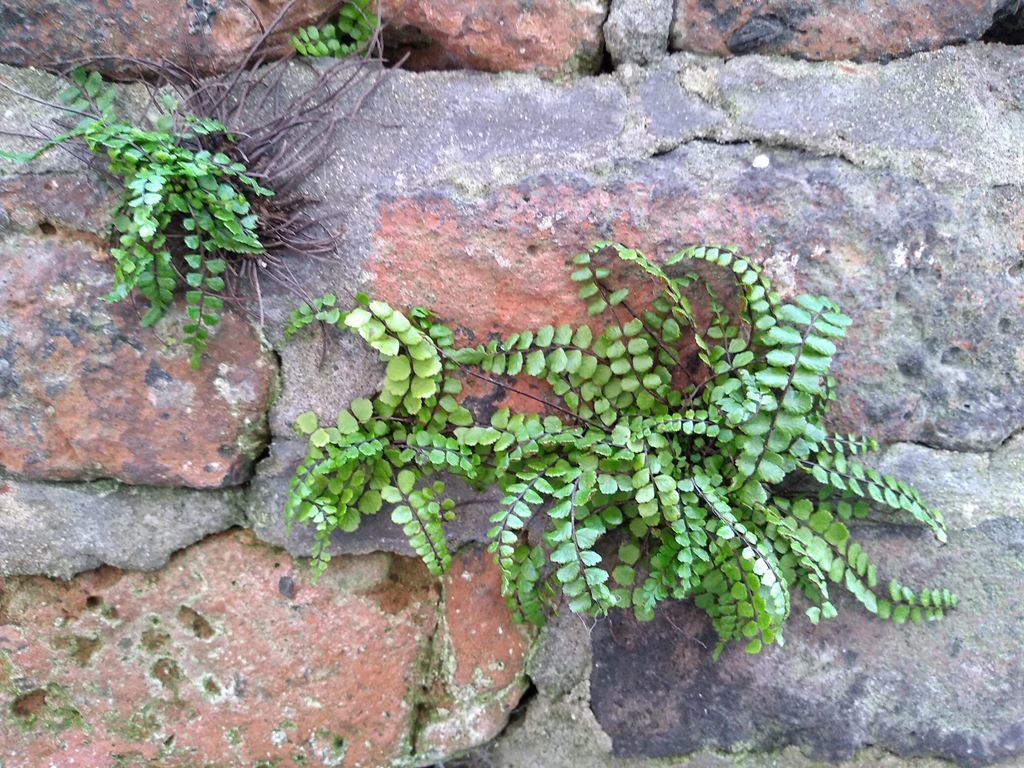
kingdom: Plantae
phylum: Tracheophyta
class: Polypodiopsida
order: Polypodiales
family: Aspleniaceae
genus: Asplenium
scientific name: Asplenium trichomanes
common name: Maidenhair spleenwort
